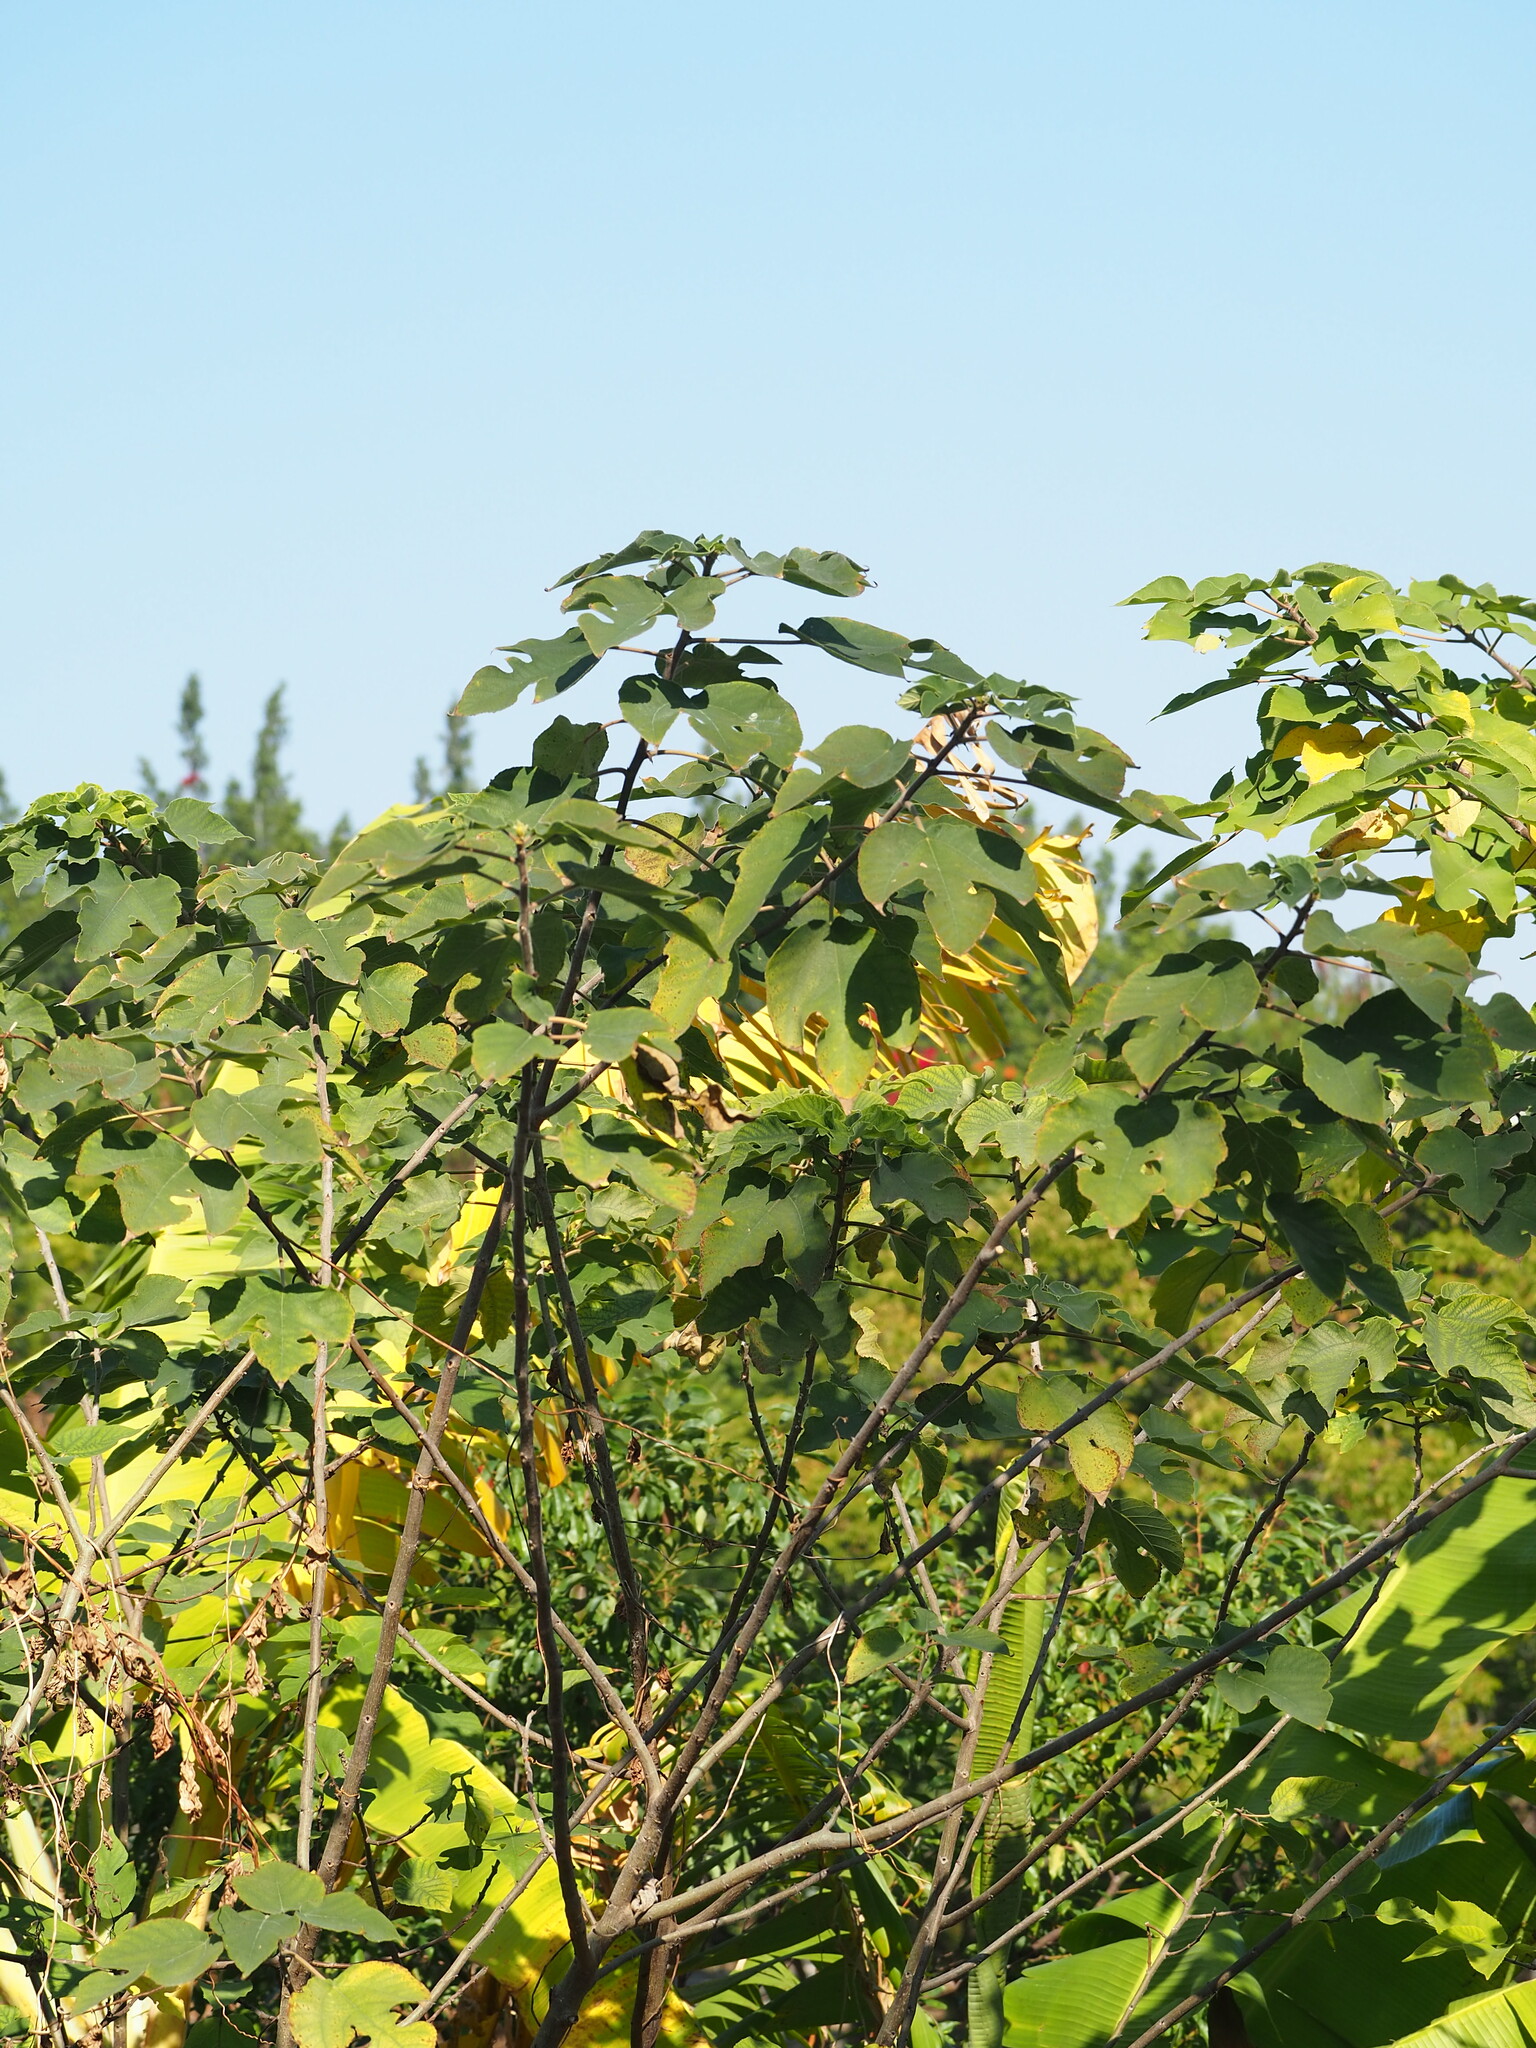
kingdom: Plantae
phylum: Tracheophyta
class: Magnoliopsida
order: Rosales
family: Moraceae
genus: Broussonetia
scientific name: Broussonetia papyrifera
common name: Paper mulberry
